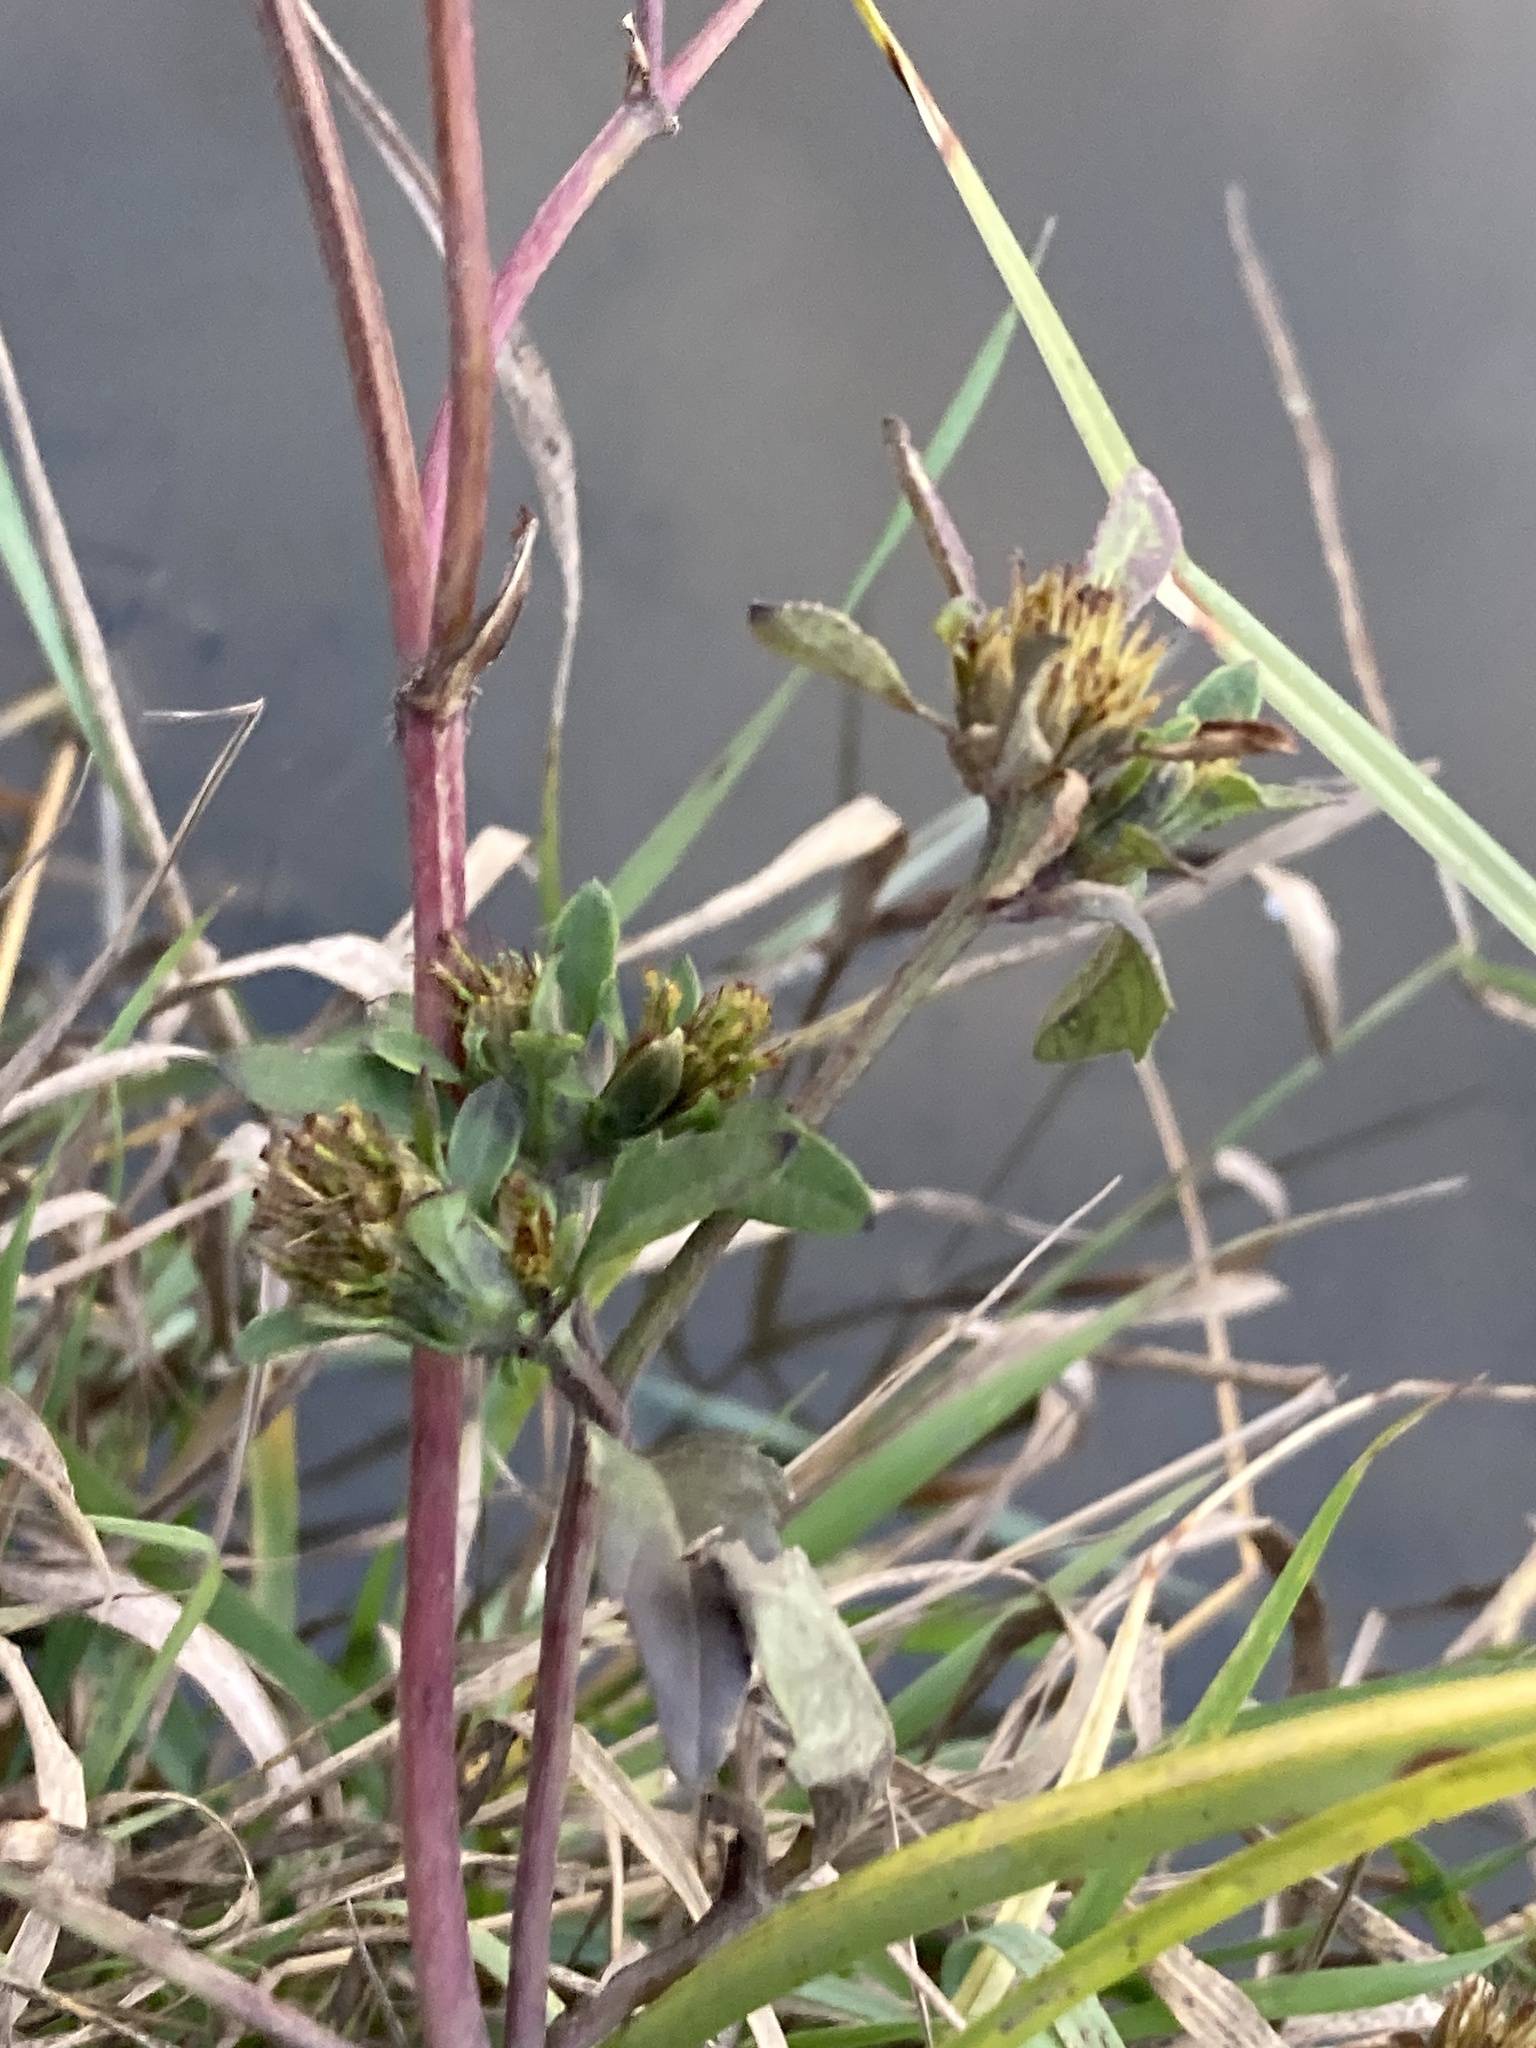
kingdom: Plantae
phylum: Tracheophyta
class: Magnoliopsida
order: Asterales
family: Asteraceae
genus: Bidens
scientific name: Bidens frondosa
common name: Beggarticks
